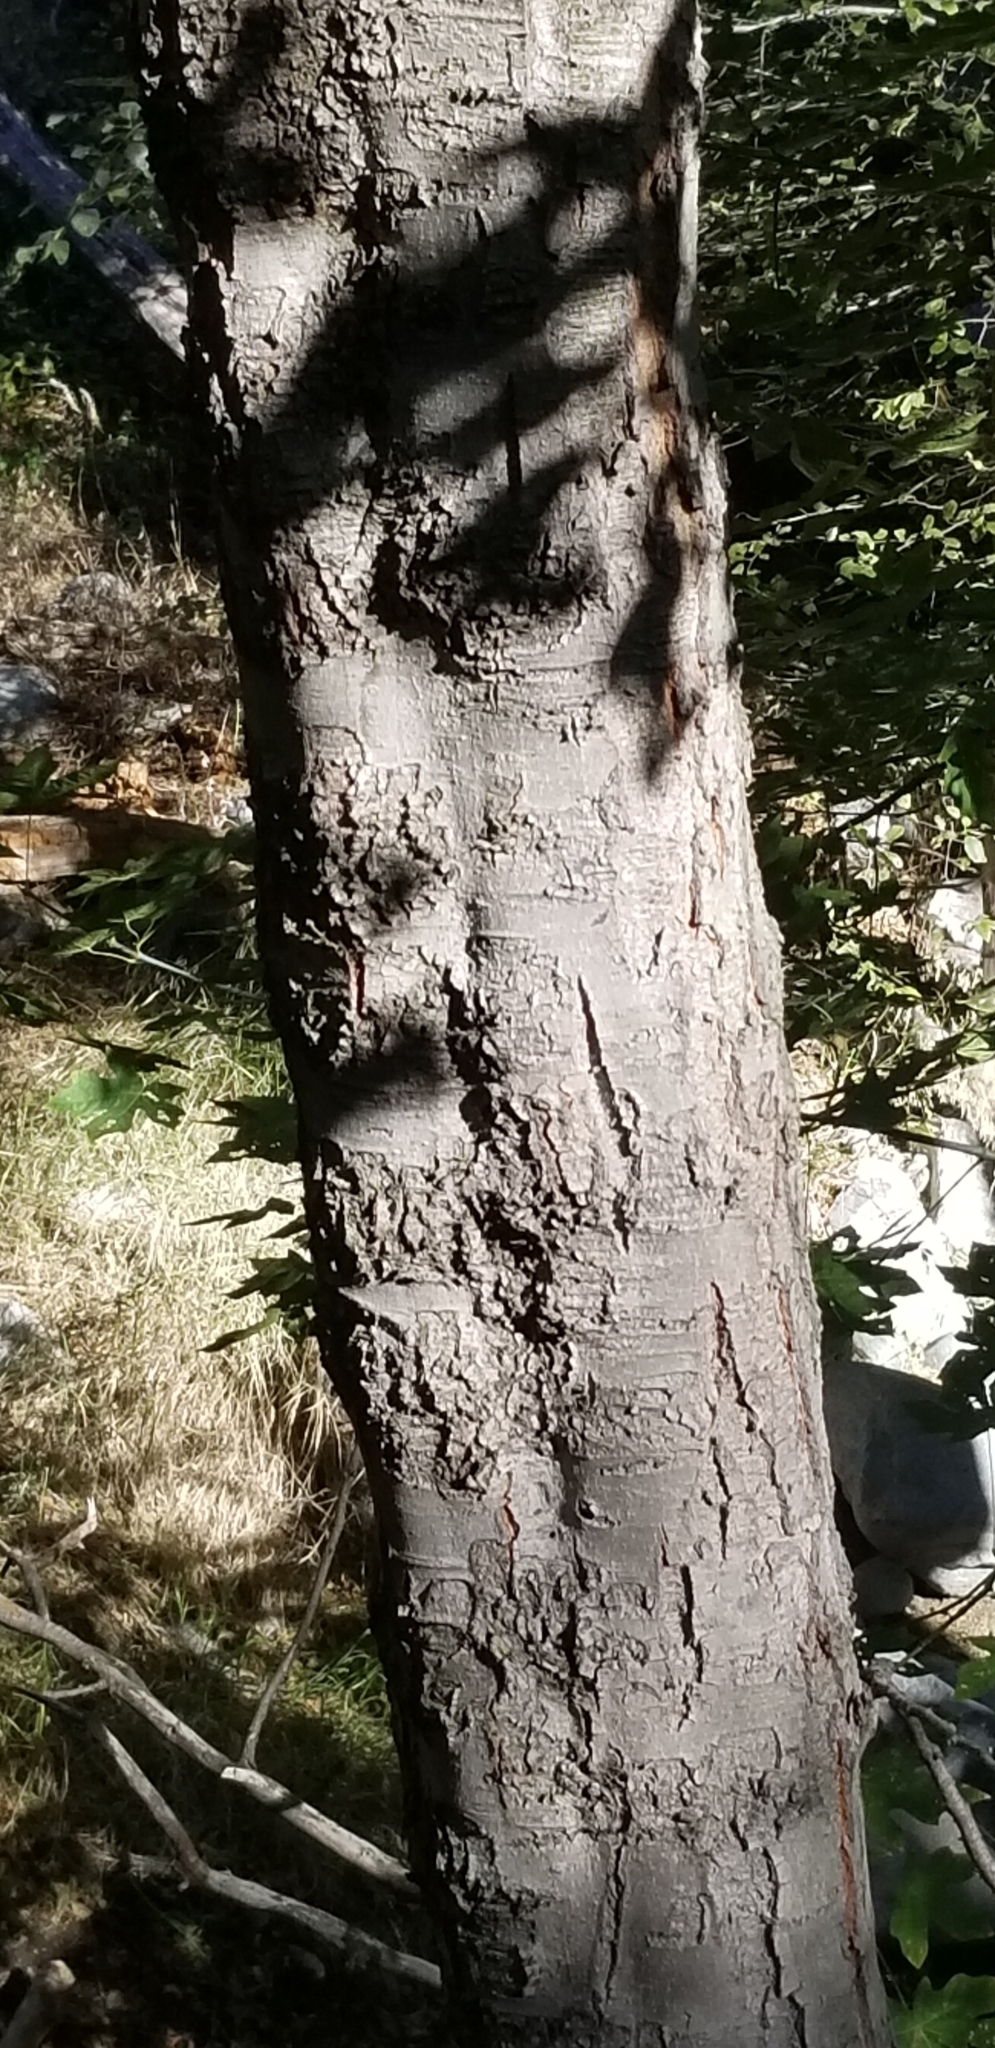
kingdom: Plantae
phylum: Tracheophyta
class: Magnoliopsida
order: Fagales
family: Betulaceae
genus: Alnus
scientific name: Alnus rhombifolia
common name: California alder
